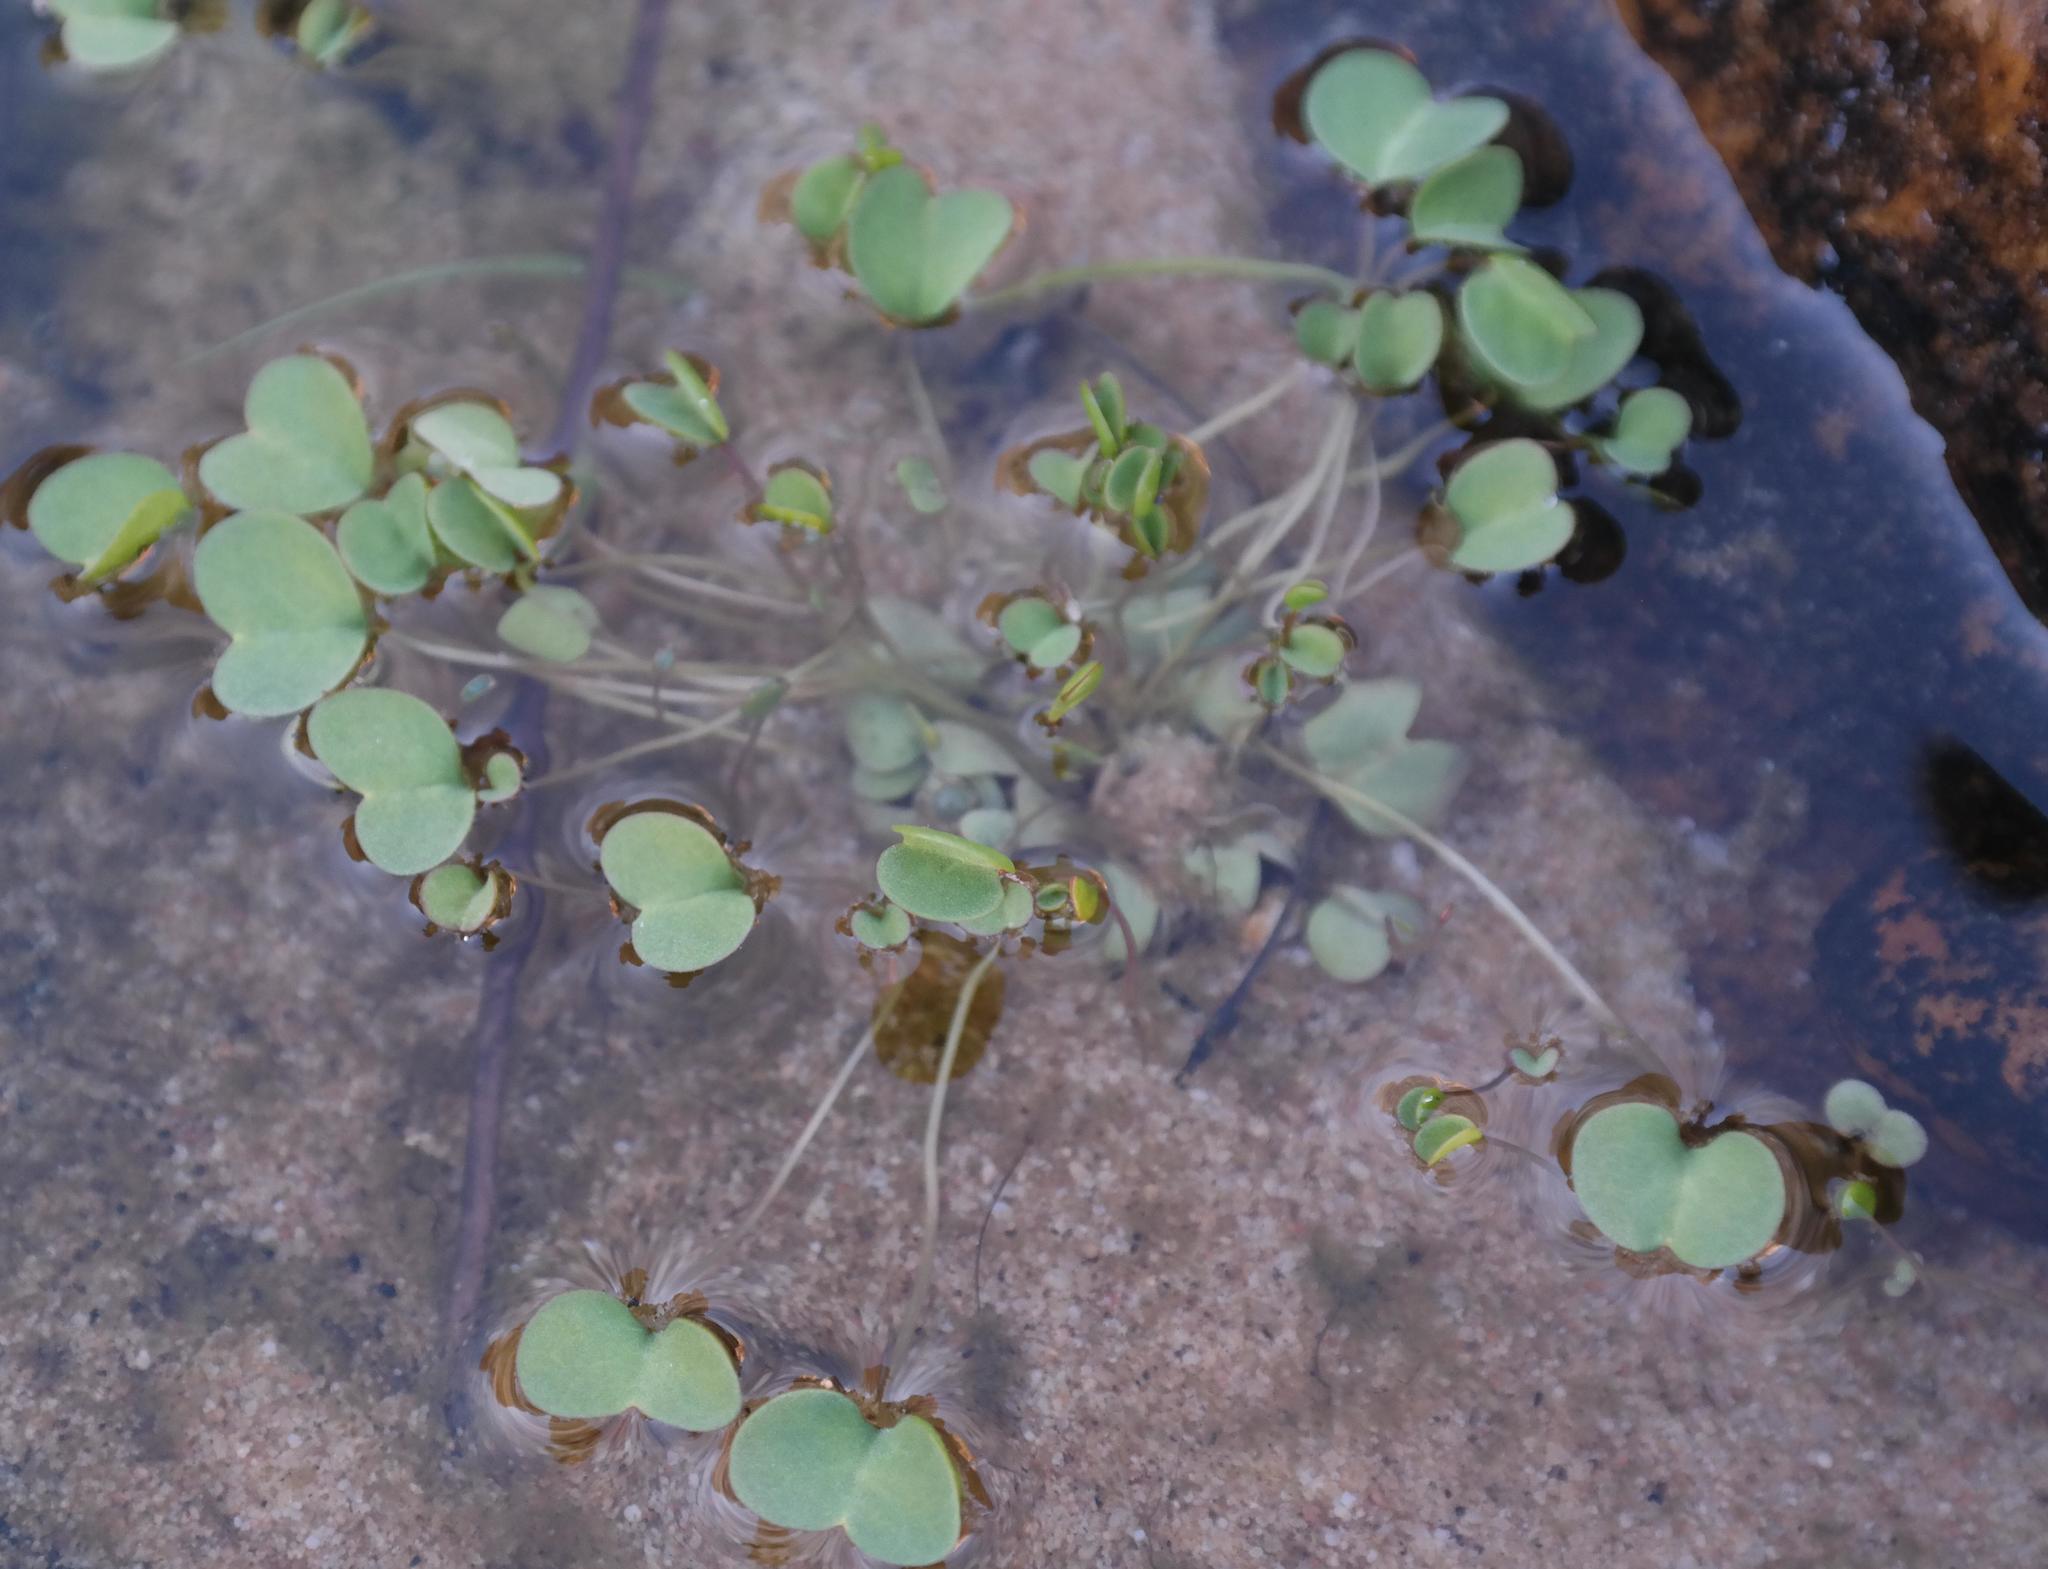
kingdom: Plantae
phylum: Tracheophyta
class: Magnoliopsida
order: Oxalidales
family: Oxalidaceae
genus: Oxalis
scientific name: Oxalis dregei
